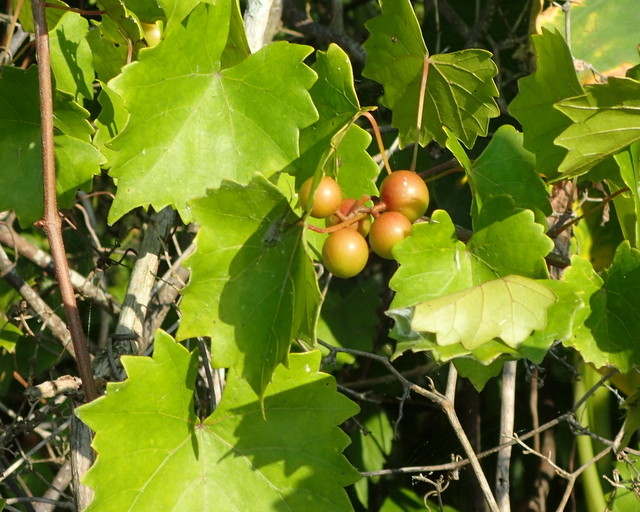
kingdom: Plantae
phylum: Tracheophyta
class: Magnoliopsida
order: Vitales
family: Vitaceae
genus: Vitis
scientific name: Vitis rotundifolia
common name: Muscadine grape
